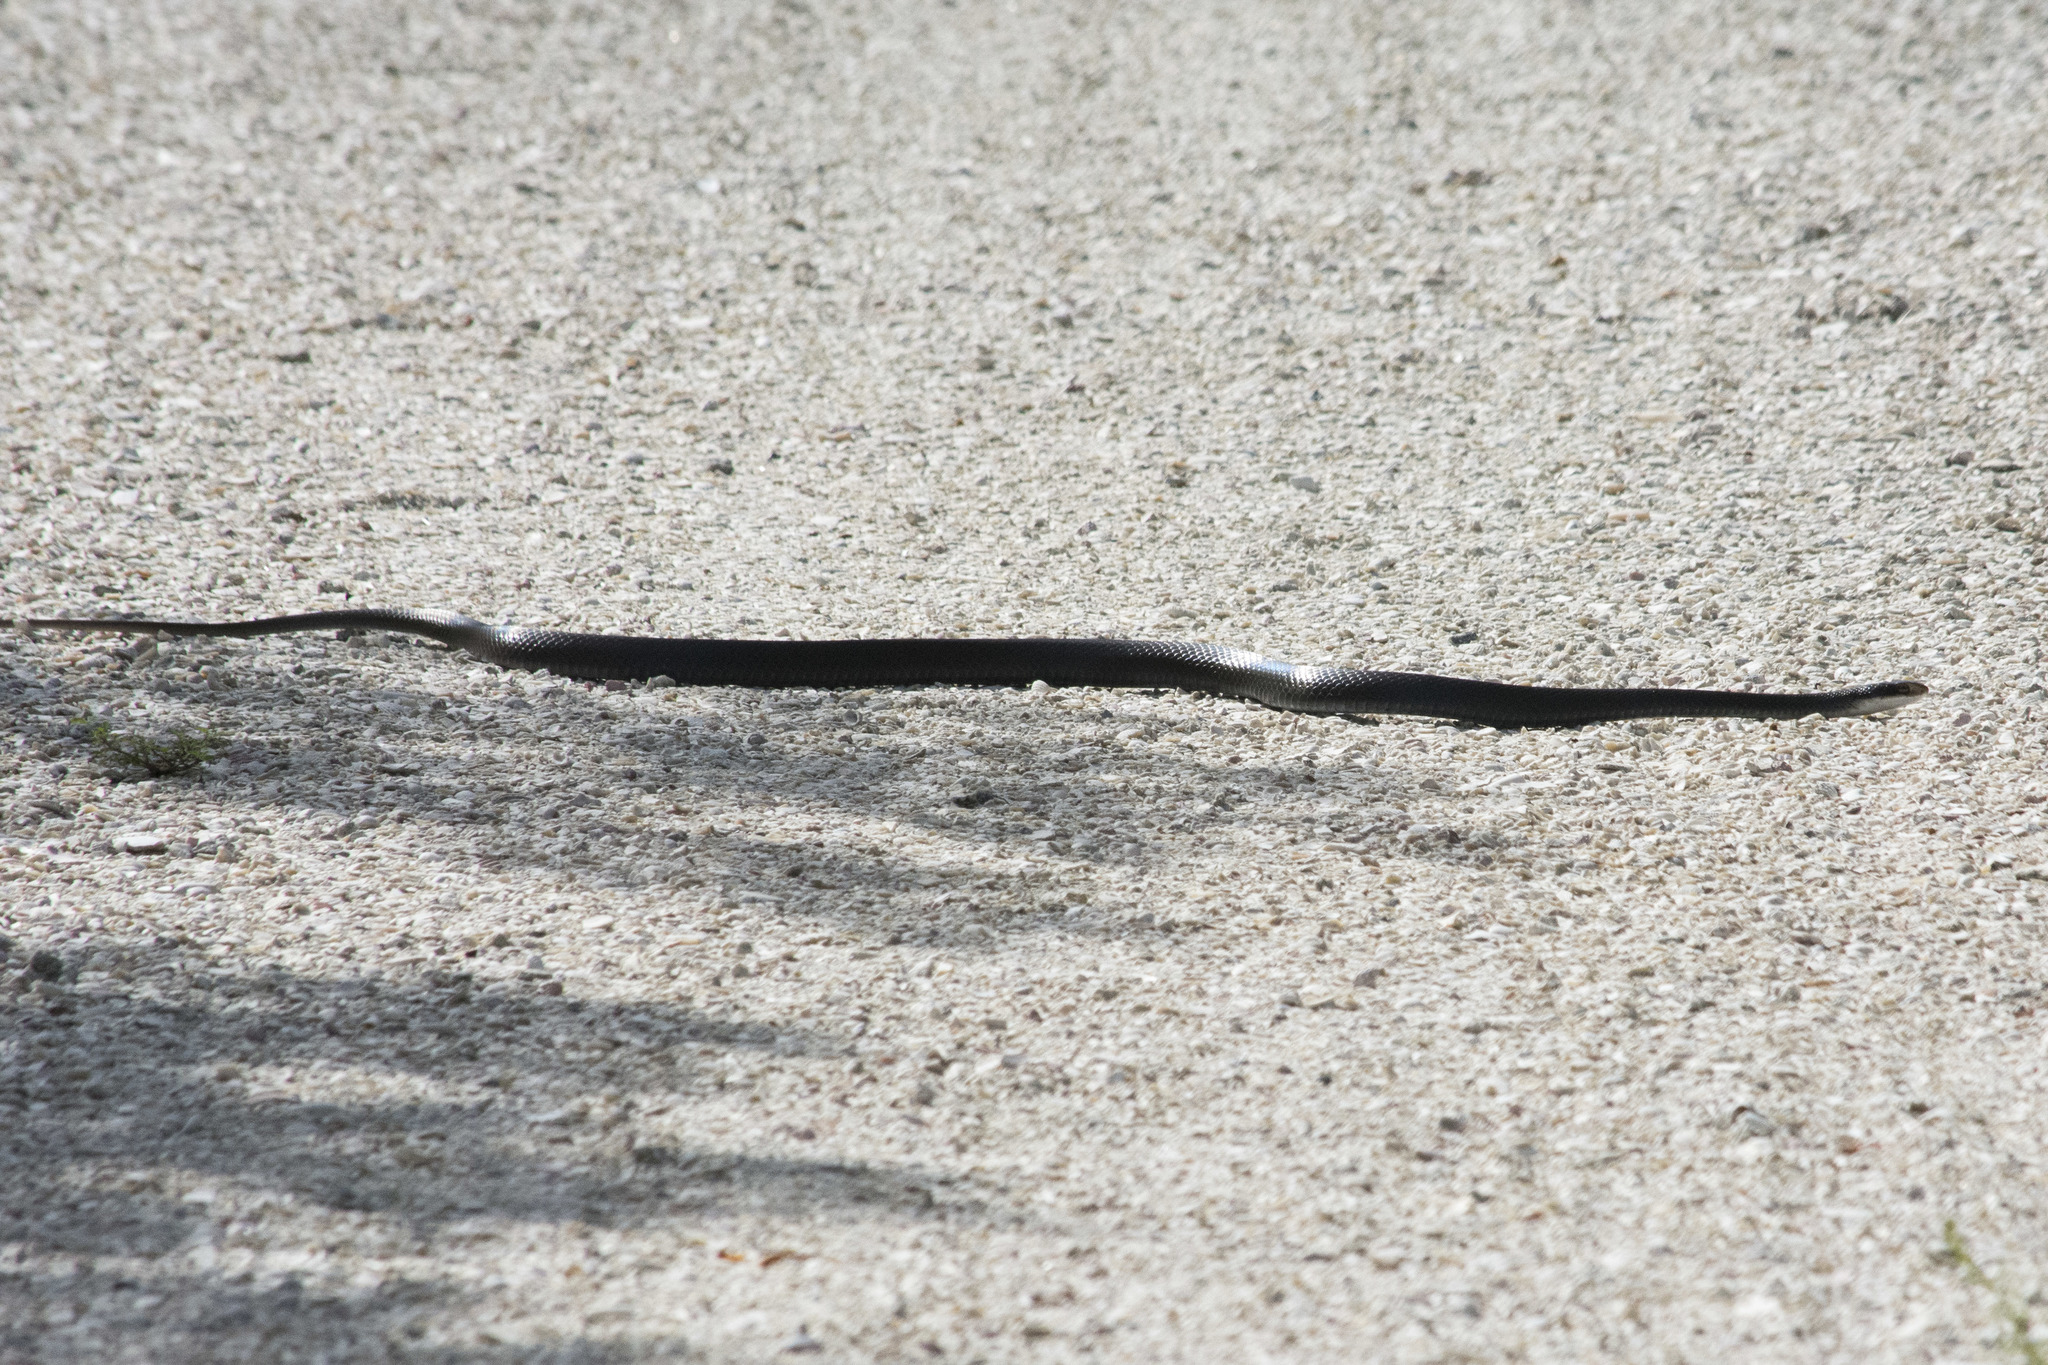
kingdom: Animalia
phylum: Chordata
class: Squamata
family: Colubridae
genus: Coluber
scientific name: Coluber constrictor
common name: Eastern racer
